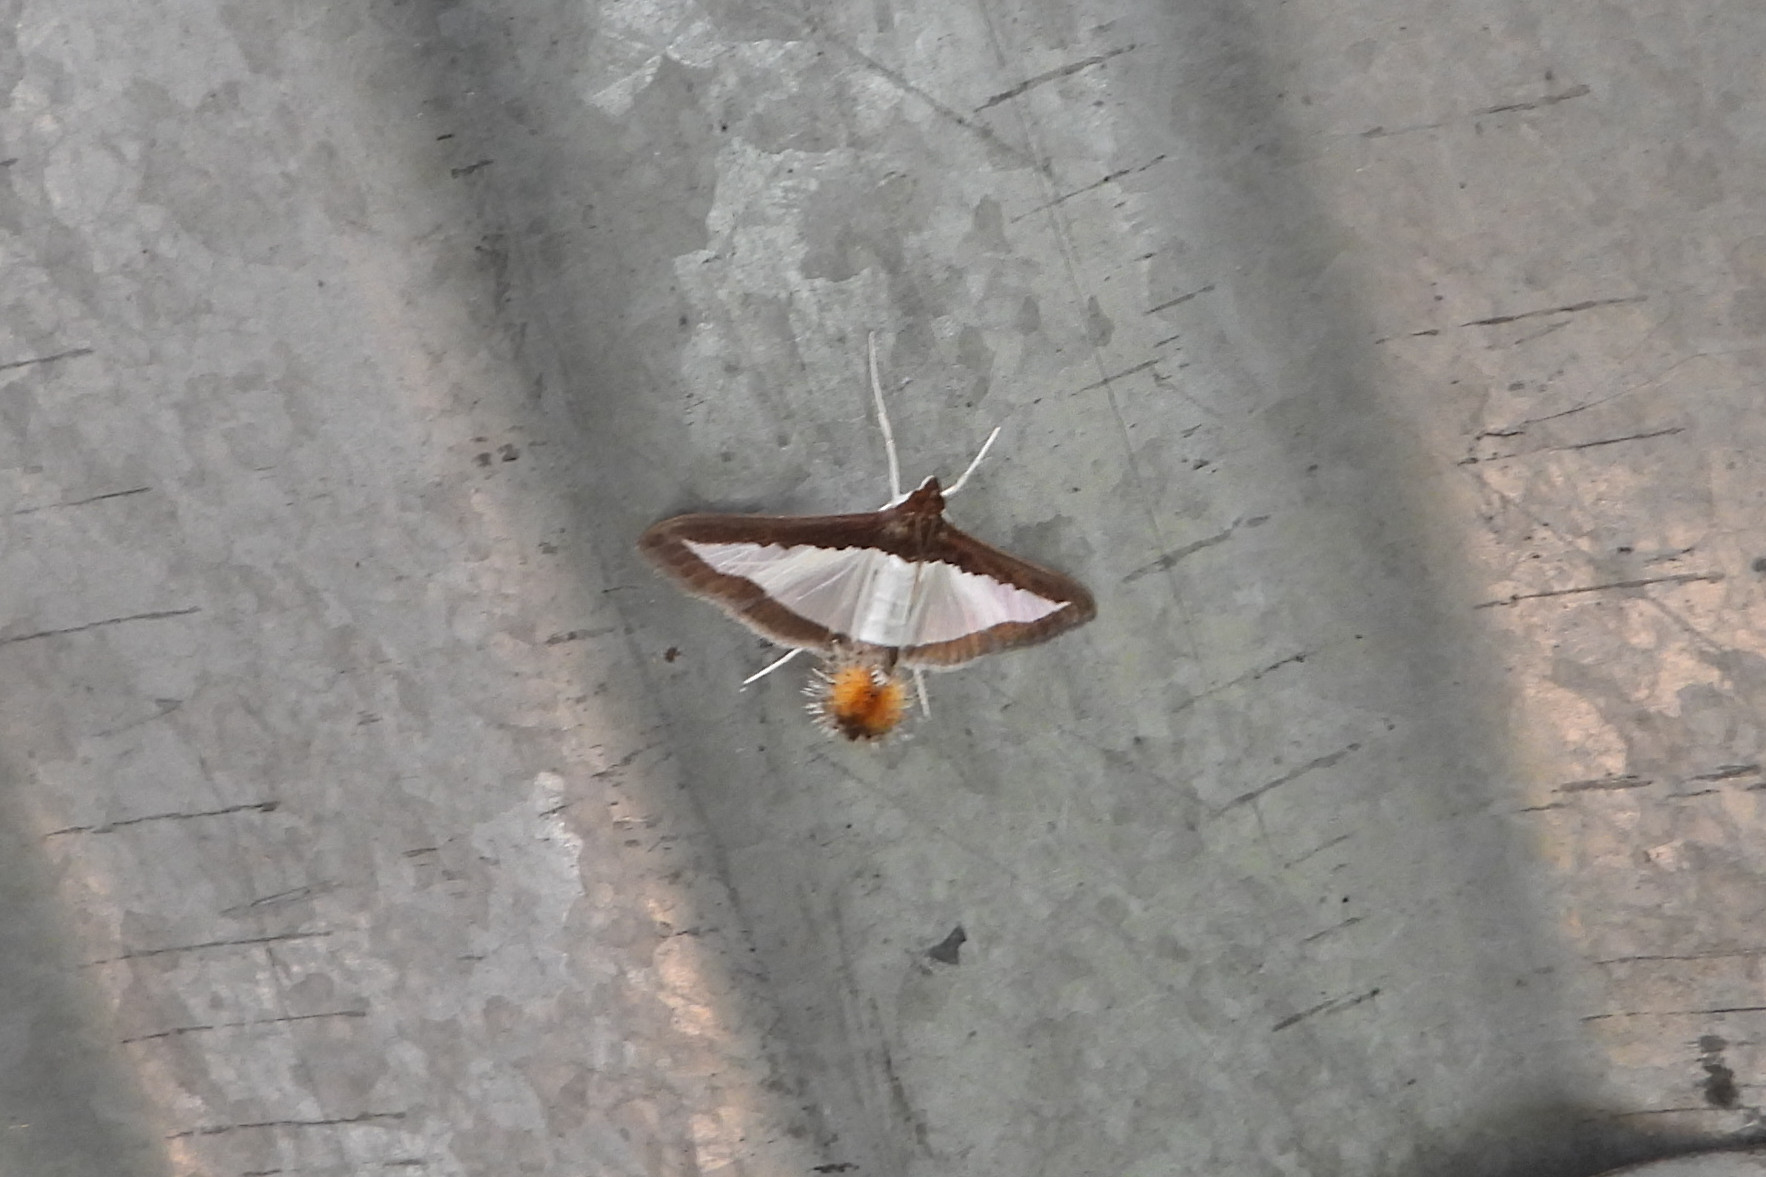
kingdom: Animalia
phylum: Arthropoda
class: Insecta
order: Lepidoptera
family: Crambidae
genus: Diaphania
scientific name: Diaphania indica
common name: Cucumber moth
